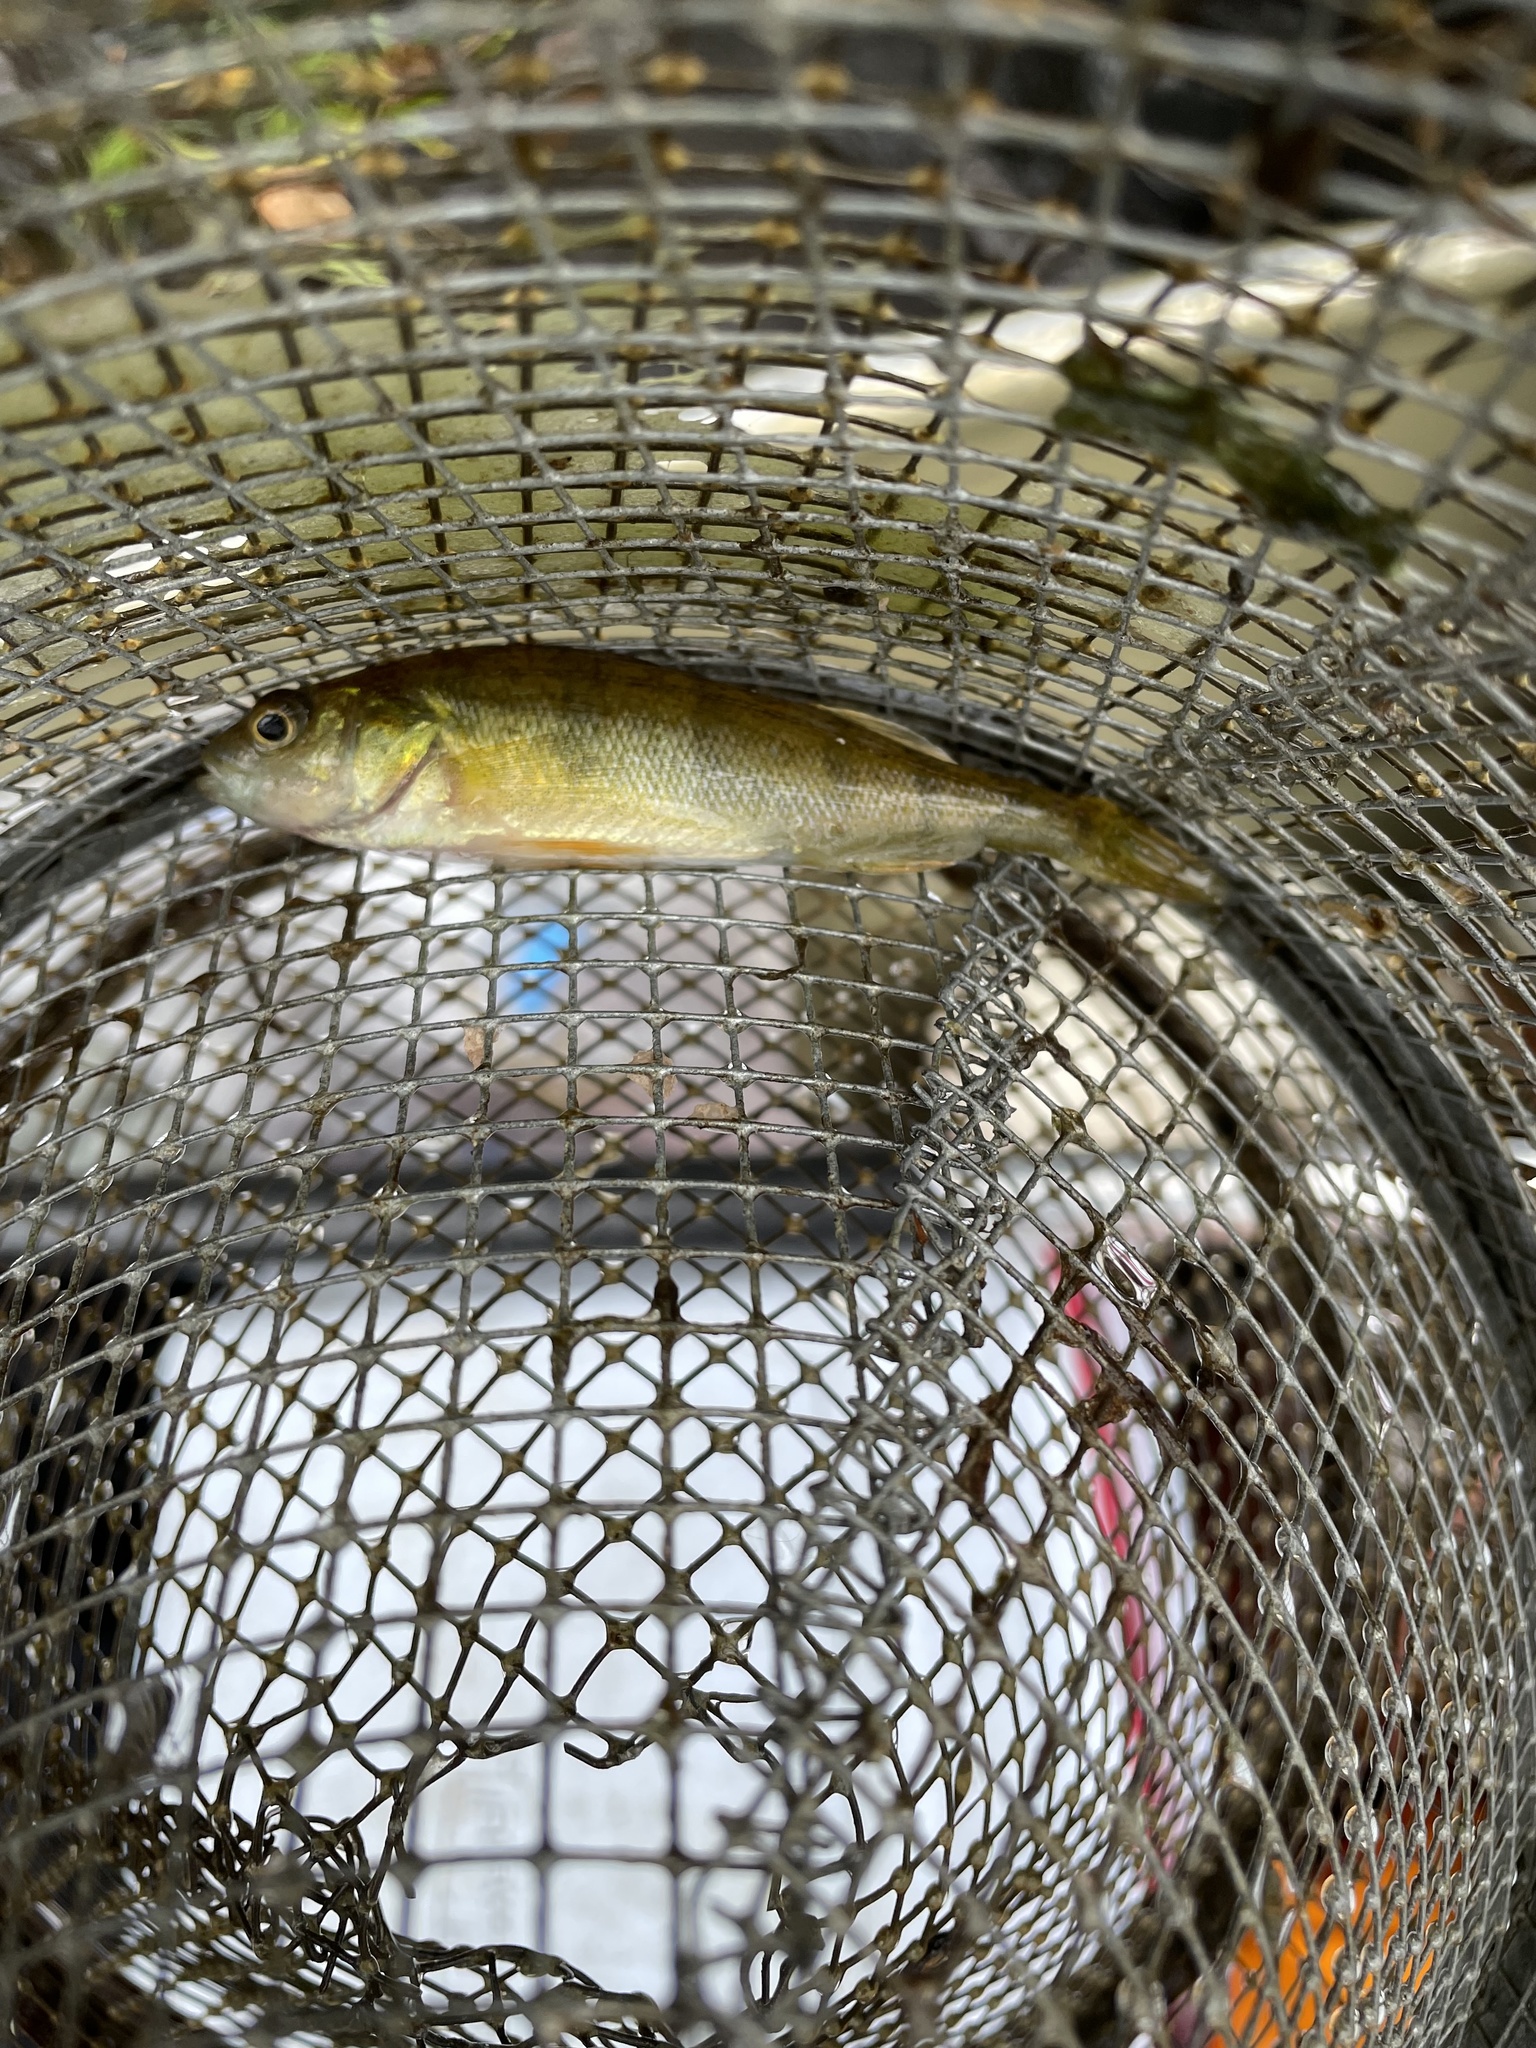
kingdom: Animalia
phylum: Chordata
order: Perciformes
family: Percidae
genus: Perca
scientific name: Perca flavescens
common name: Yellow perch
